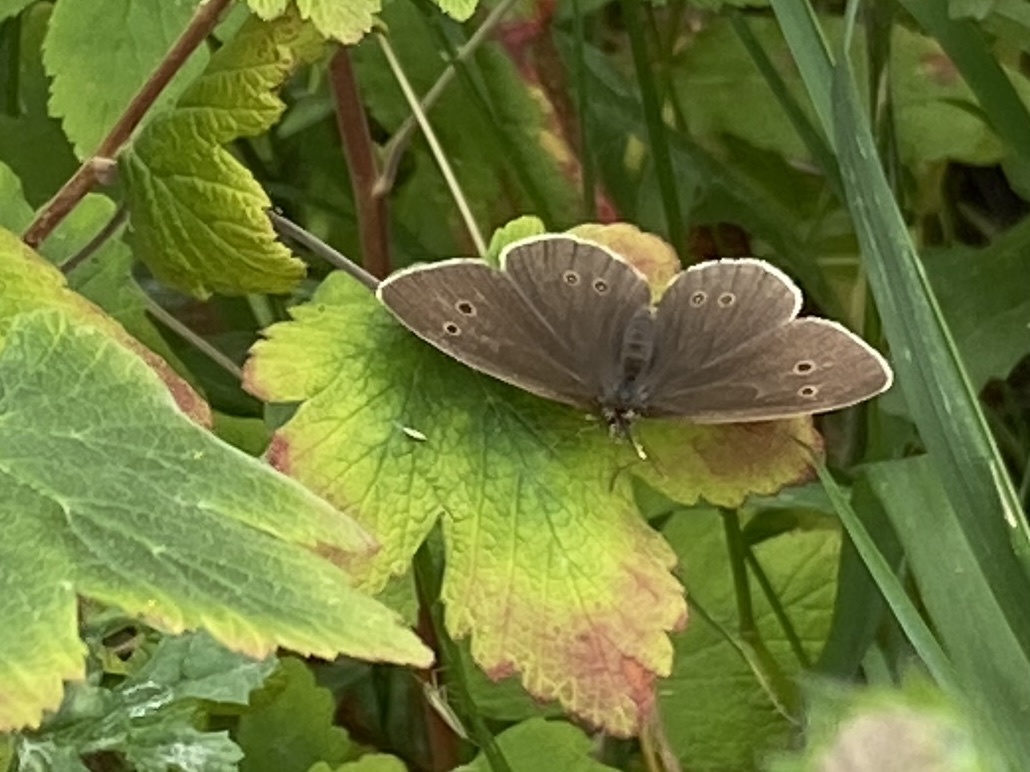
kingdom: Animalia
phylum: Arthropoda
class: Insecta
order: Lepidoptera
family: Nymphalidae
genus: Aphantopus
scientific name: Aphantopus hyperantus
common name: Ringlet
